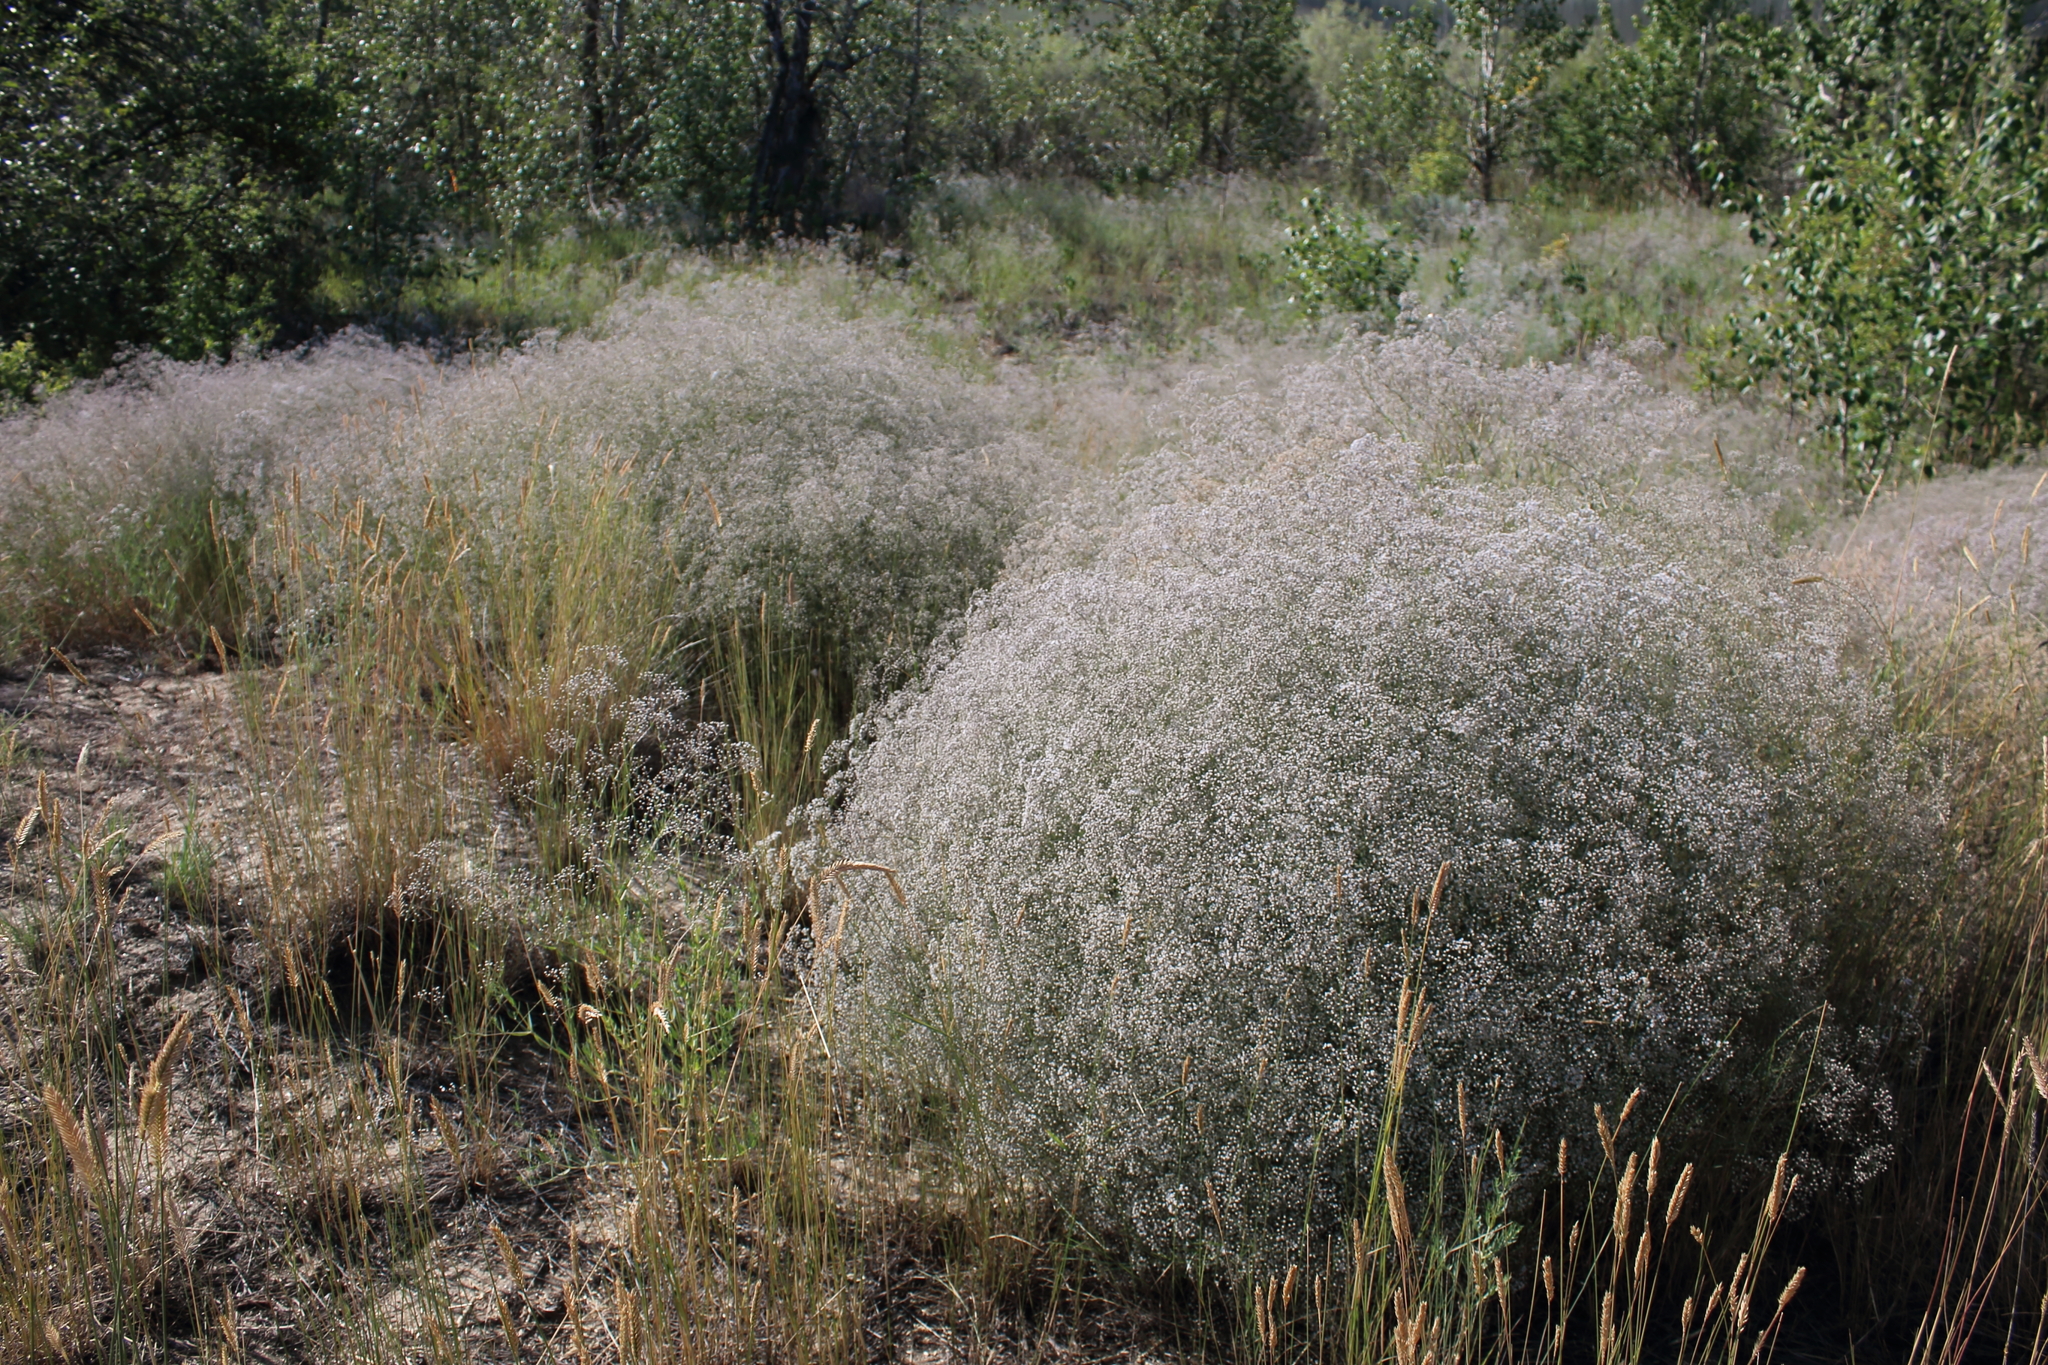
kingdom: Plantae
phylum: Tracheophyta
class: Magnoliopsida
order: Caryophyllales
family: Caryophyllaceae
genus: Gypsophila
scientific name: Gypsophila paniculata
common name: Baby's-breath
